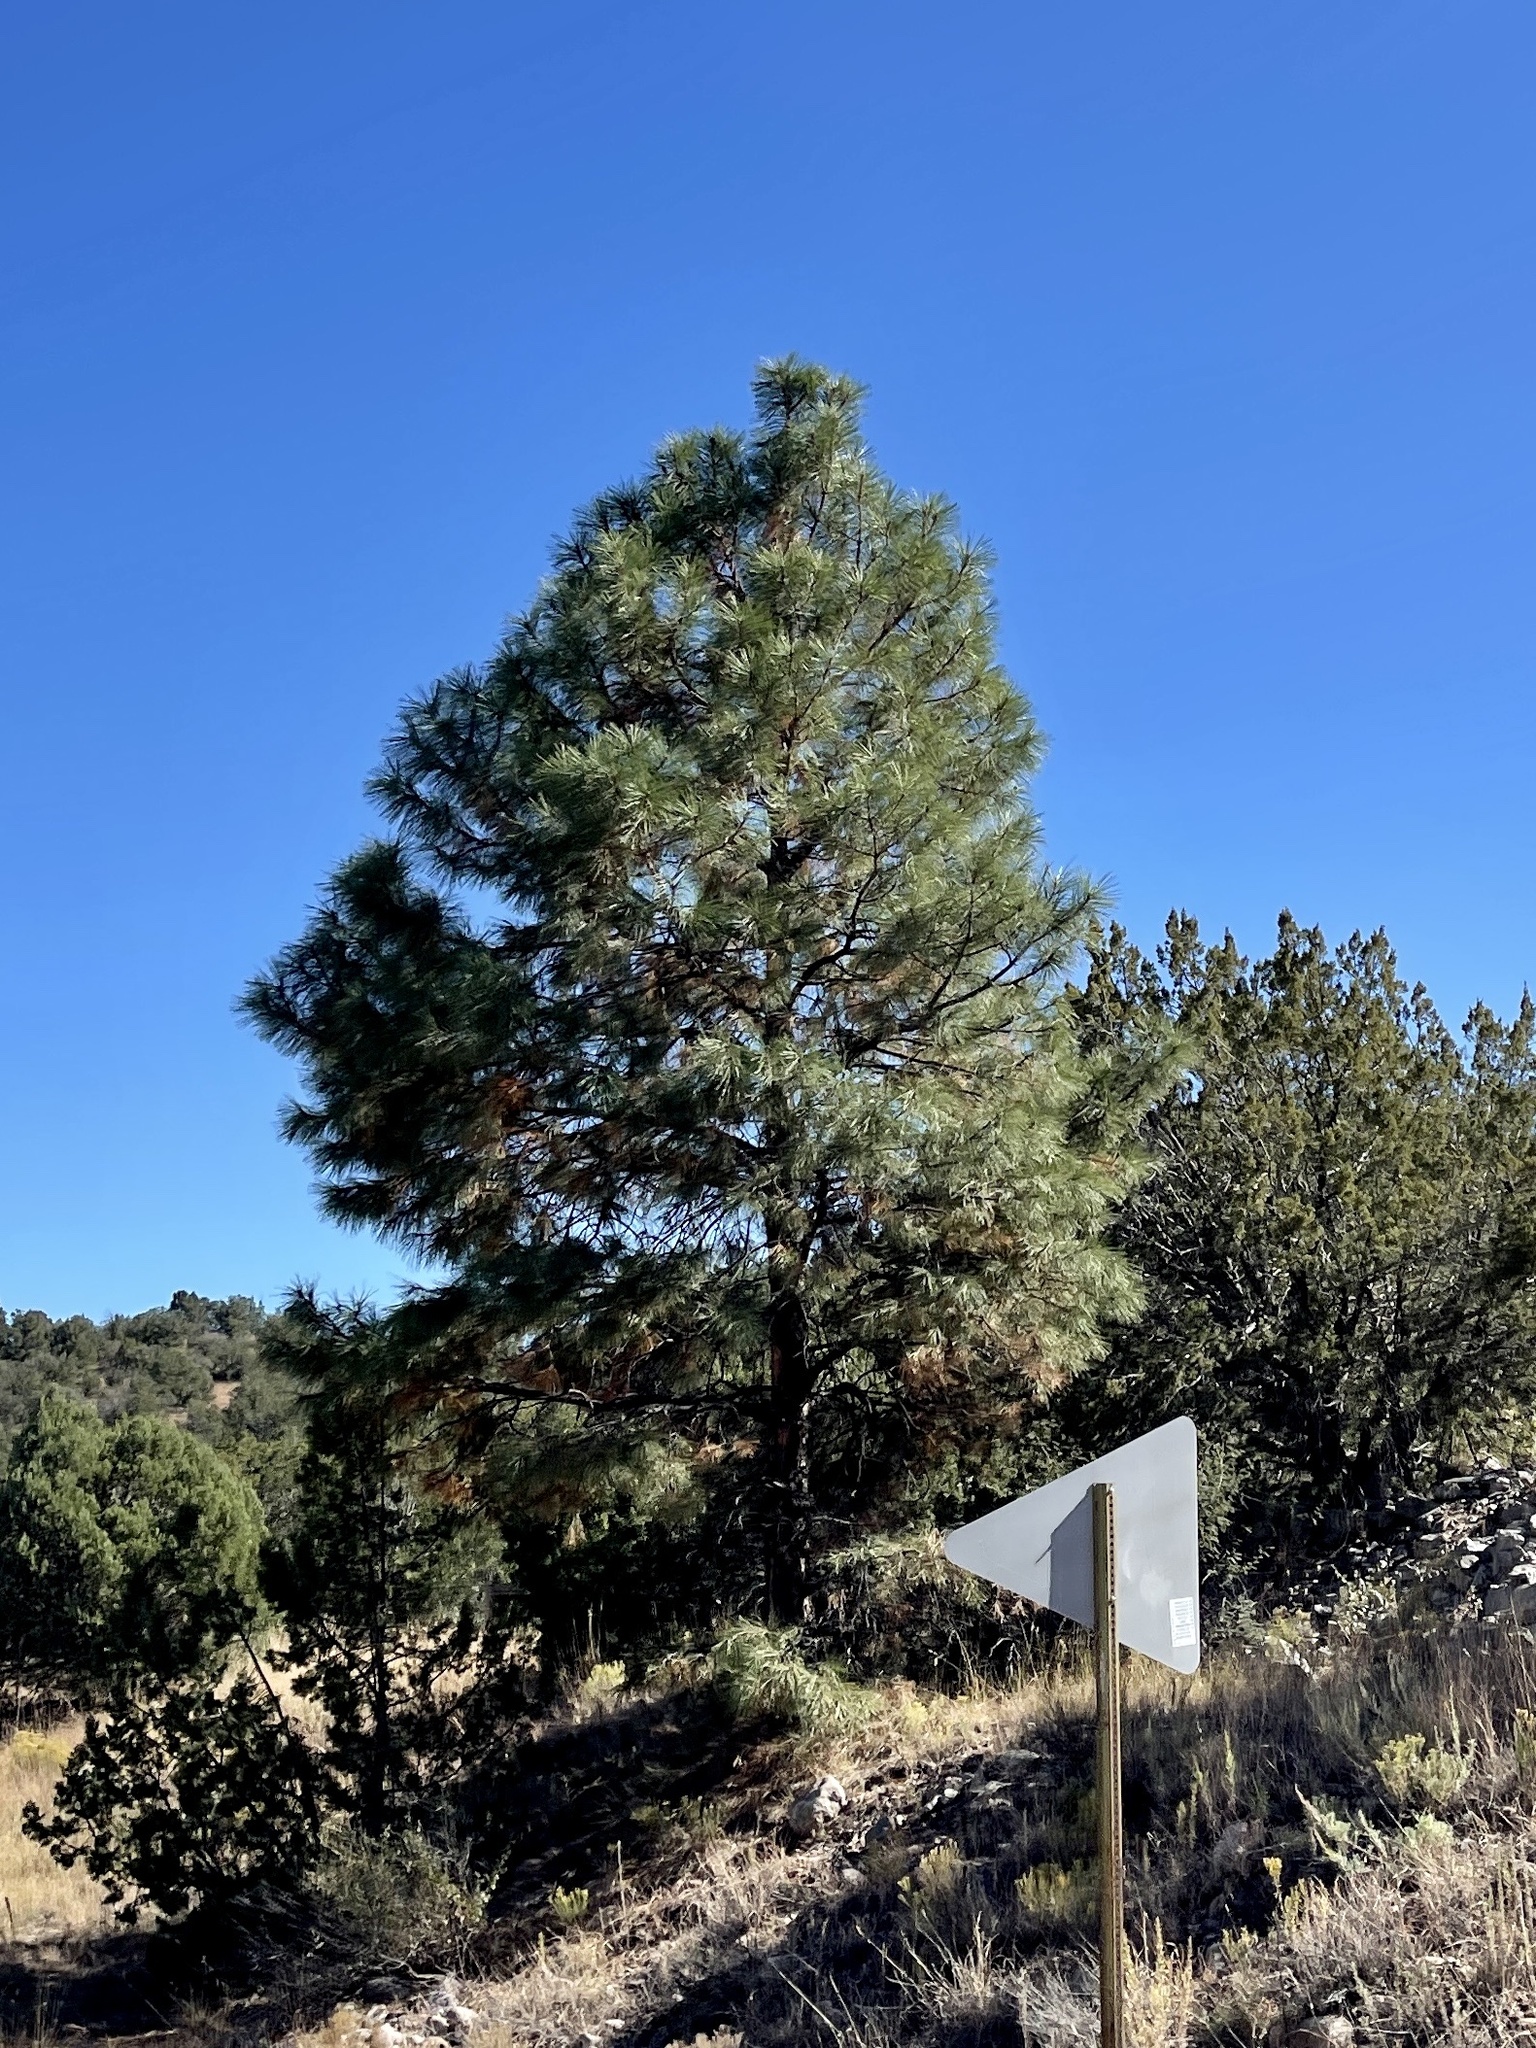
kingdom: Plantae
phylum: Tracheophyta
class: Pinopsida
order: Pinales
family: Pinaceae
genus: Pinus
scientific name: Pinus ponderosa
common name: Western yellow-pine
